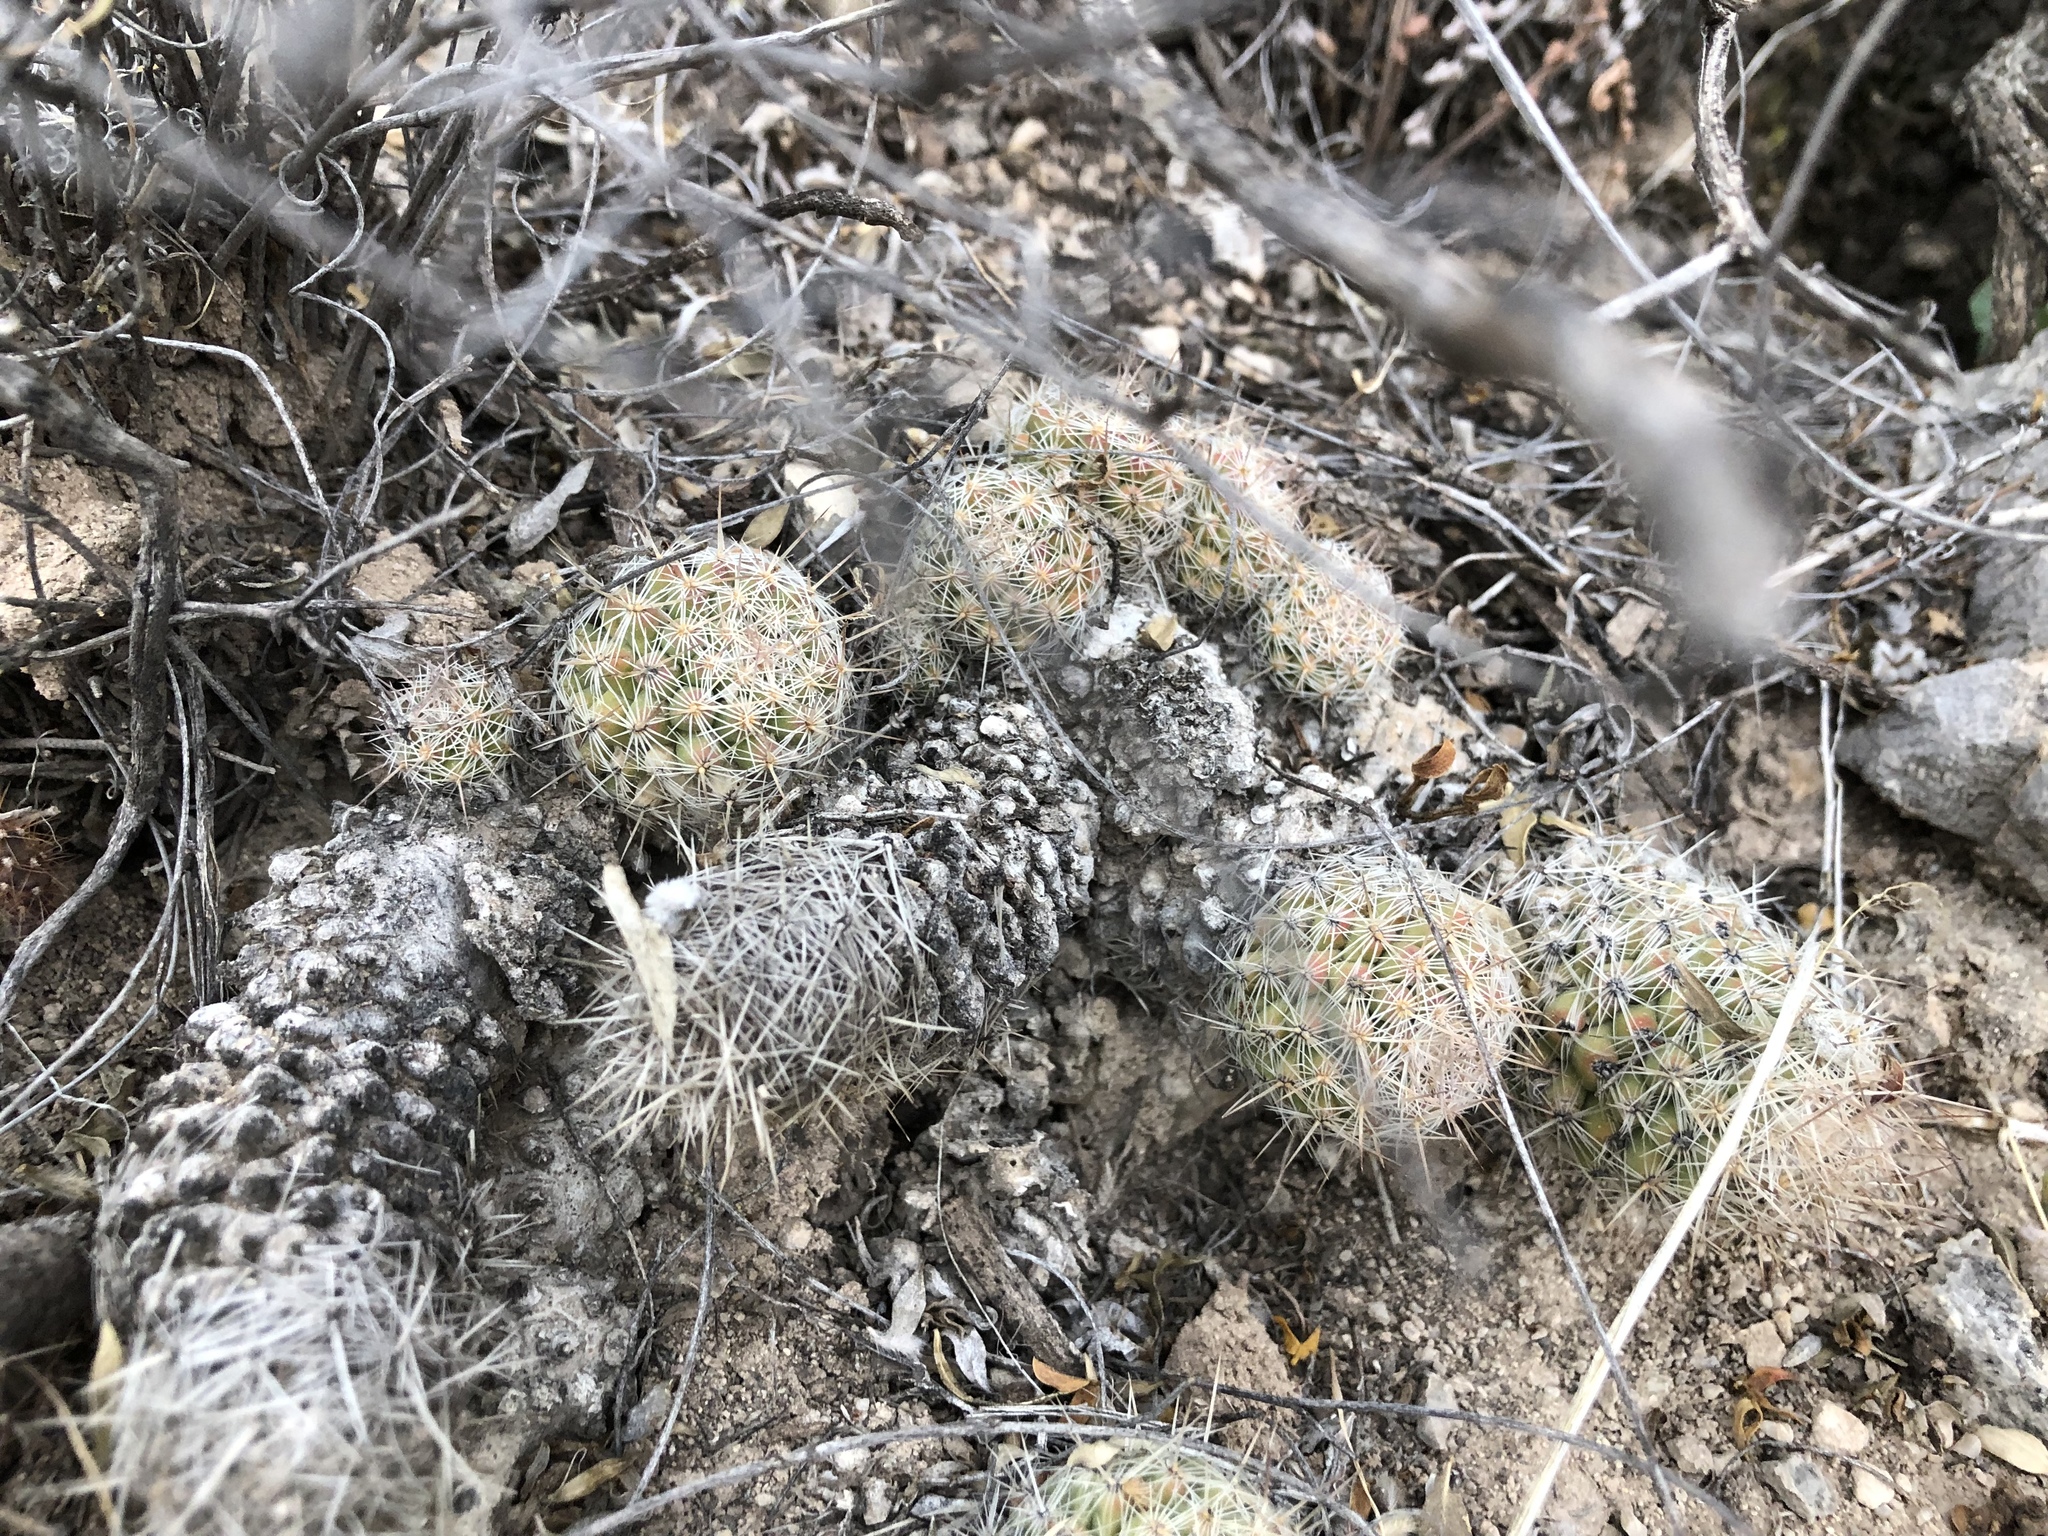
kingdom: Plantae
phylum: Tracheophyta
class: Magnoliopsida
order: Caryophyllales
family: Cactaceae
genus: Pelecyphora
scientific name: Pelecyphora tuberculosa
